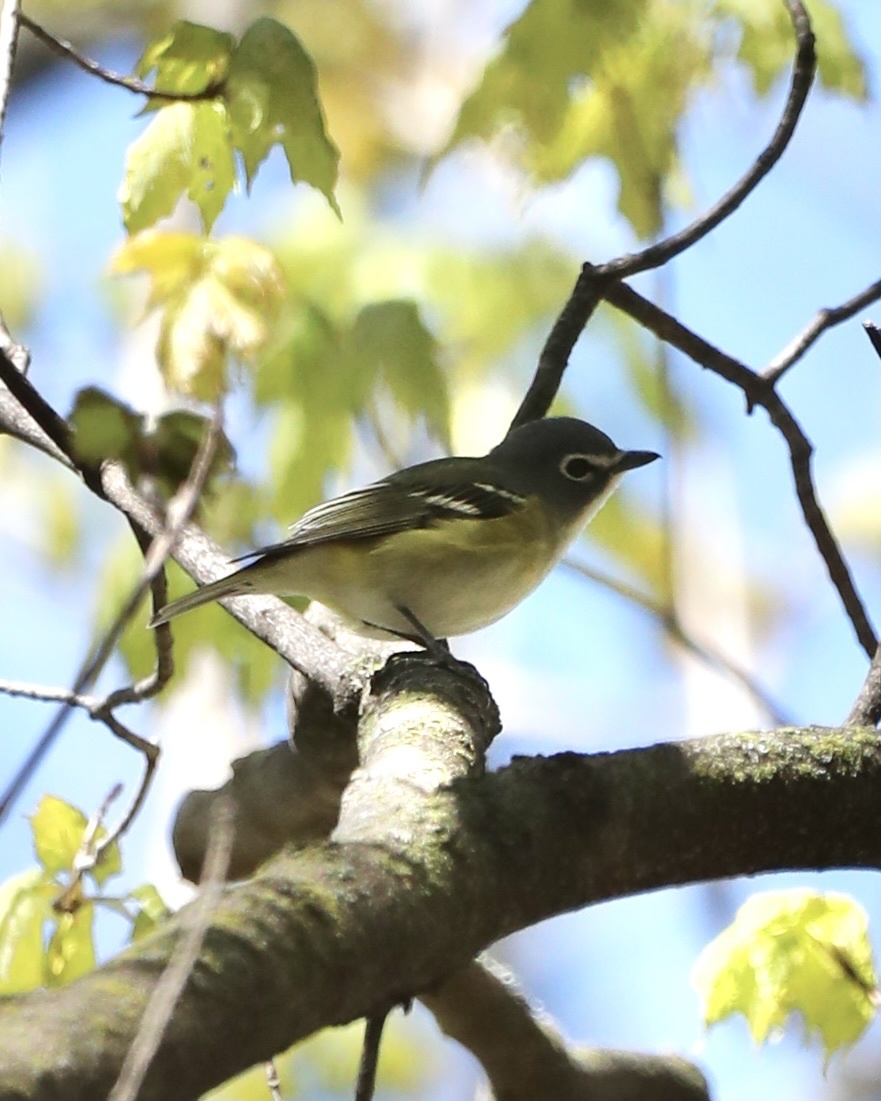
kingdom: Animalia
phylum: Chordata
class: Aves
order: Passeriformes
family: Vireonidae
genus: Vireo
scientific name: Vireo solitarius
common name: Blue-headed vireo
